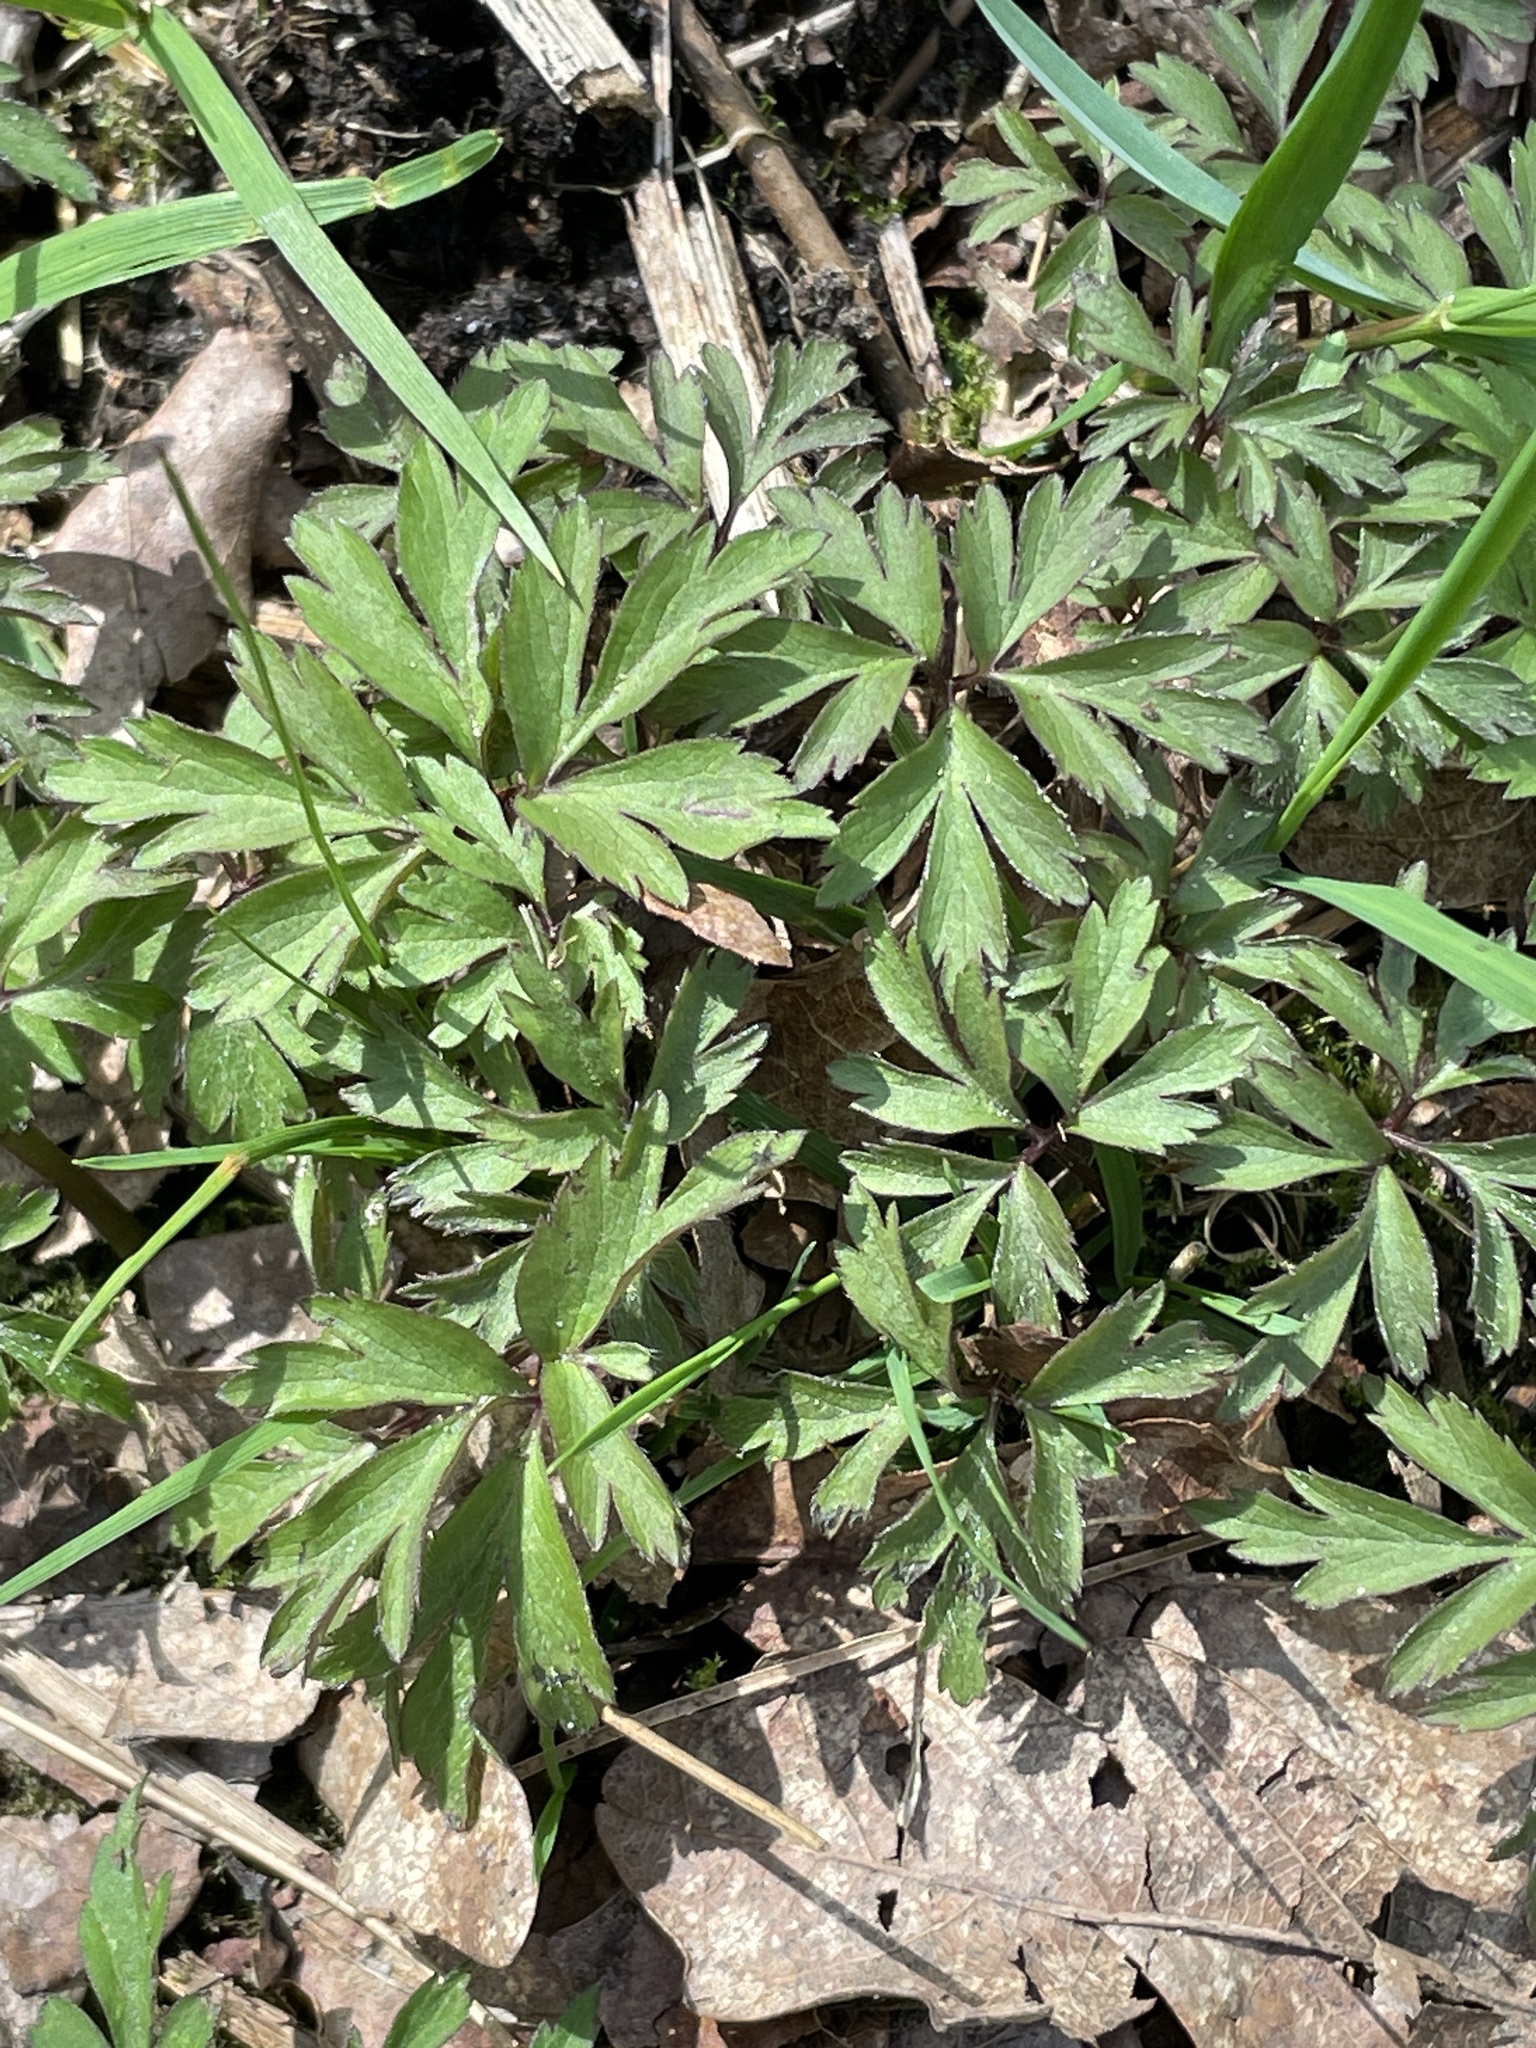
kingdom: Plantae
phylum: Tracheophyta
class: Magnoliopsida
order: Ranunculales
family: Ranunculaceae
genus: Anemone
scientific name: Anemone nemorosa
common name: Wood anemone
